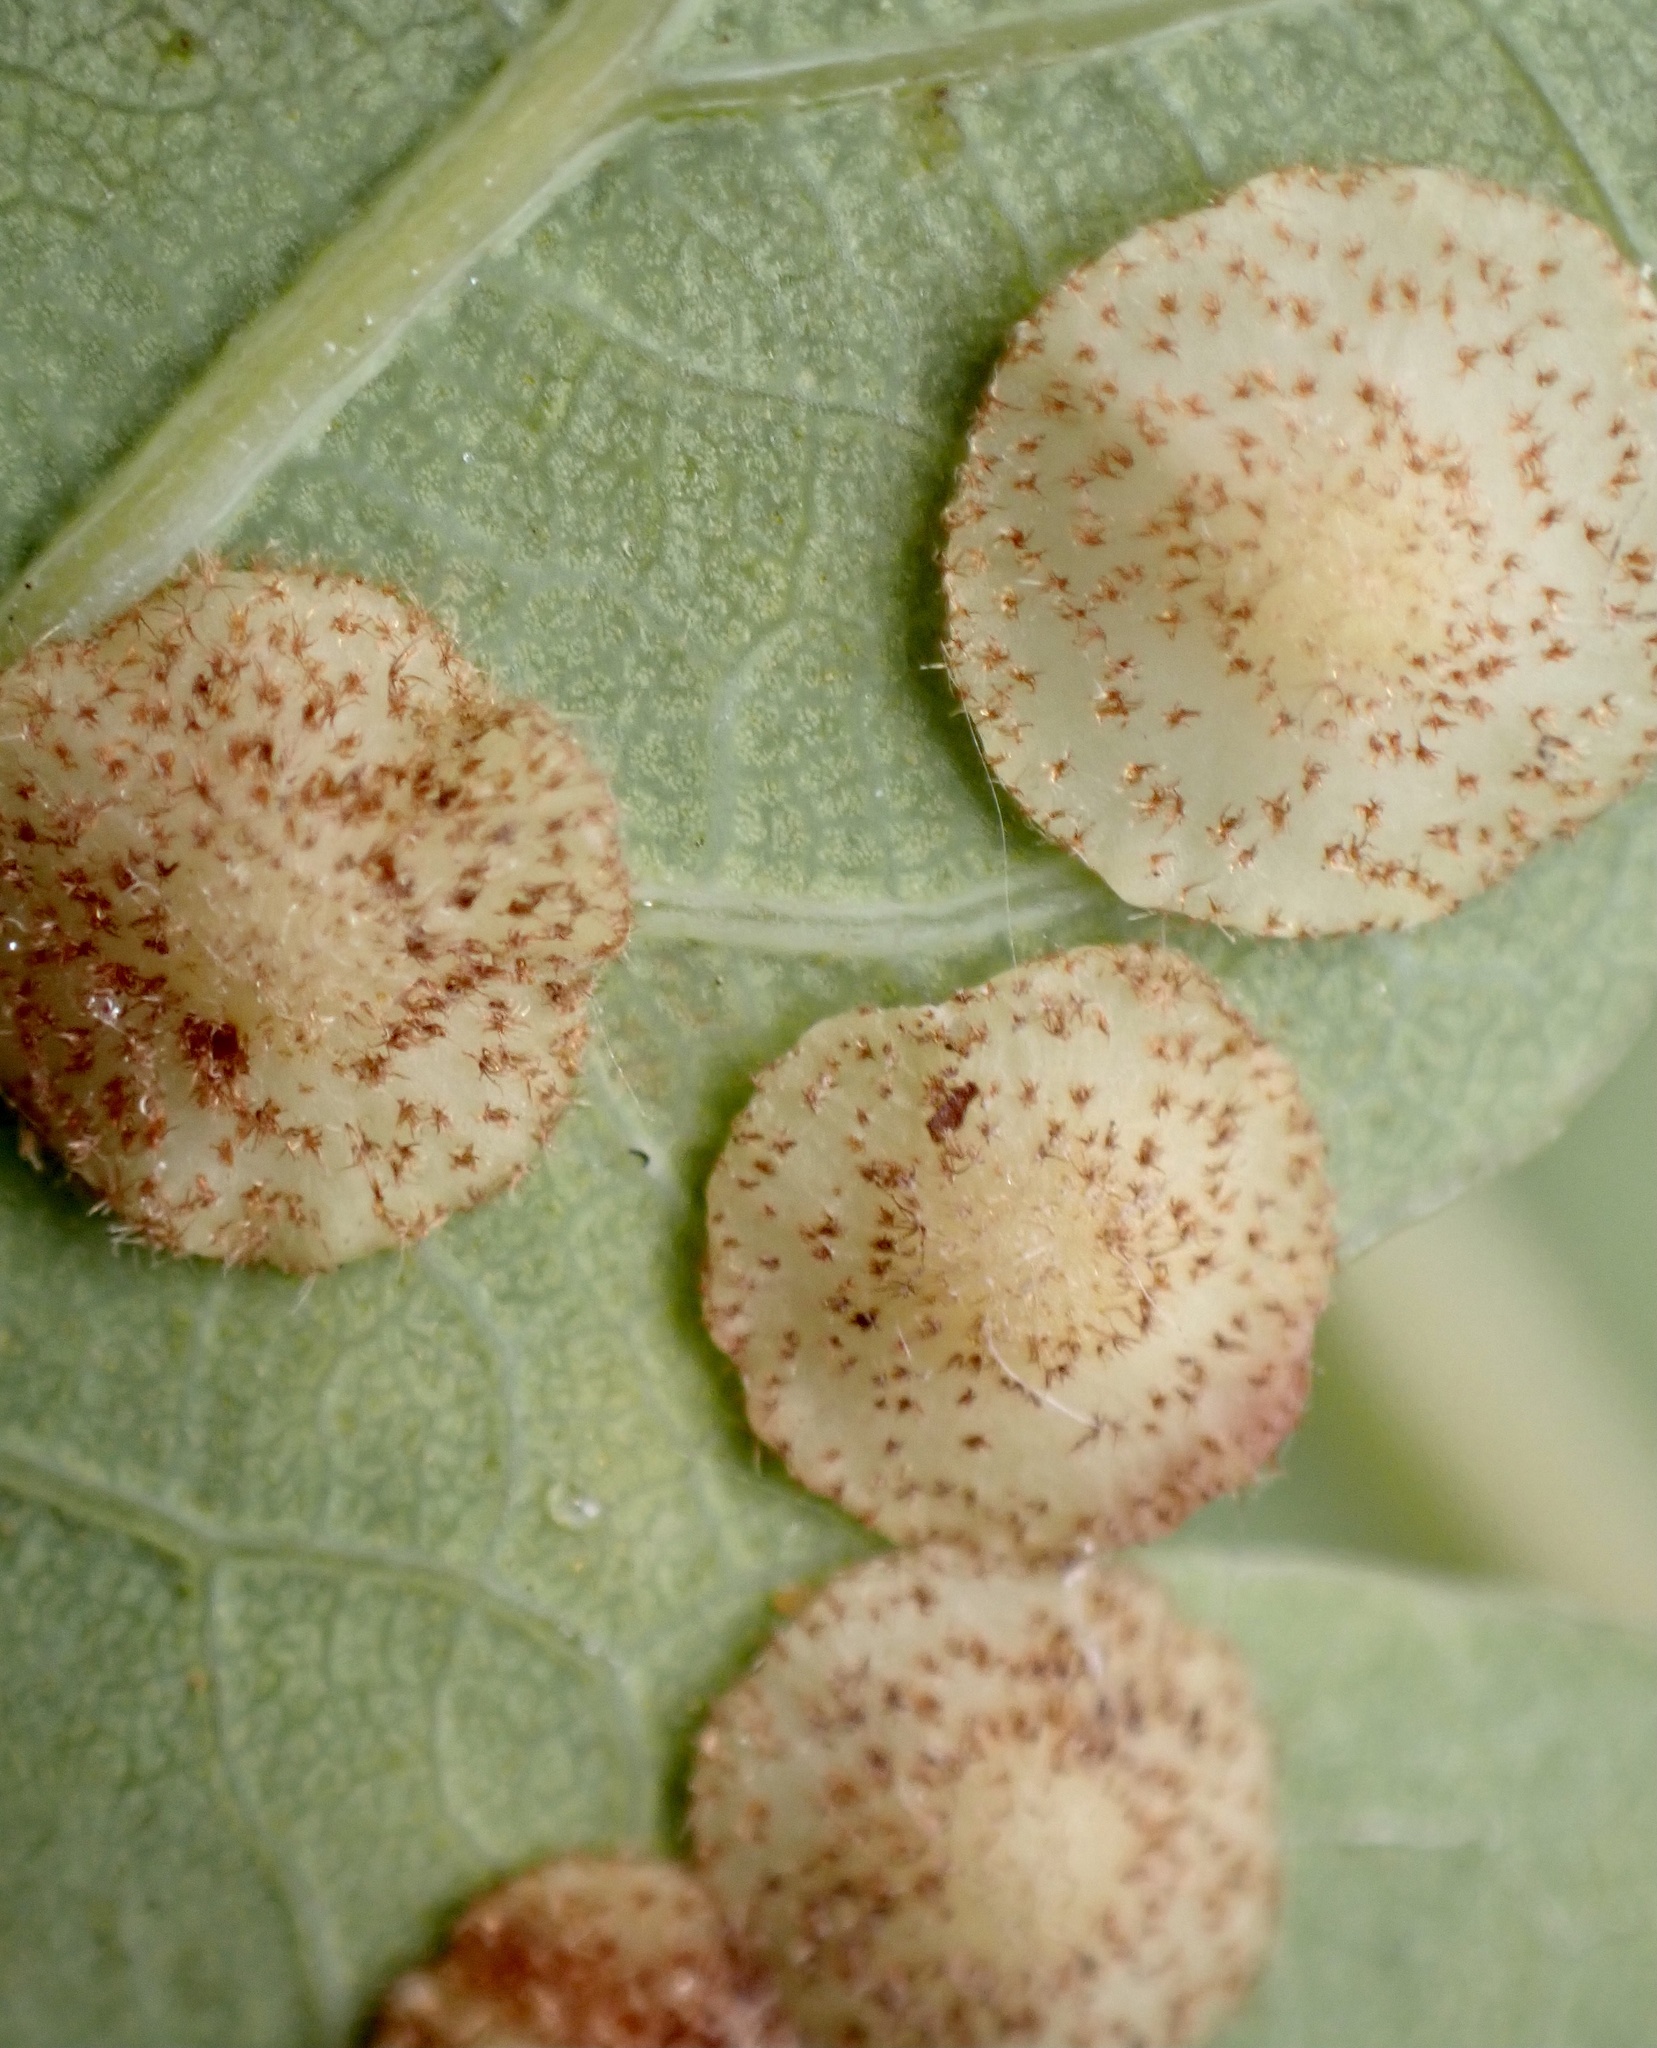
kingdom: Animalia
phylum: Arthropoda
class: Insecta
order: Hymenoptera
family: Cynipidae
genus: Neuroterus
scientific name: Neuroterus quercusbaccarum
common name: Common spangle gall
